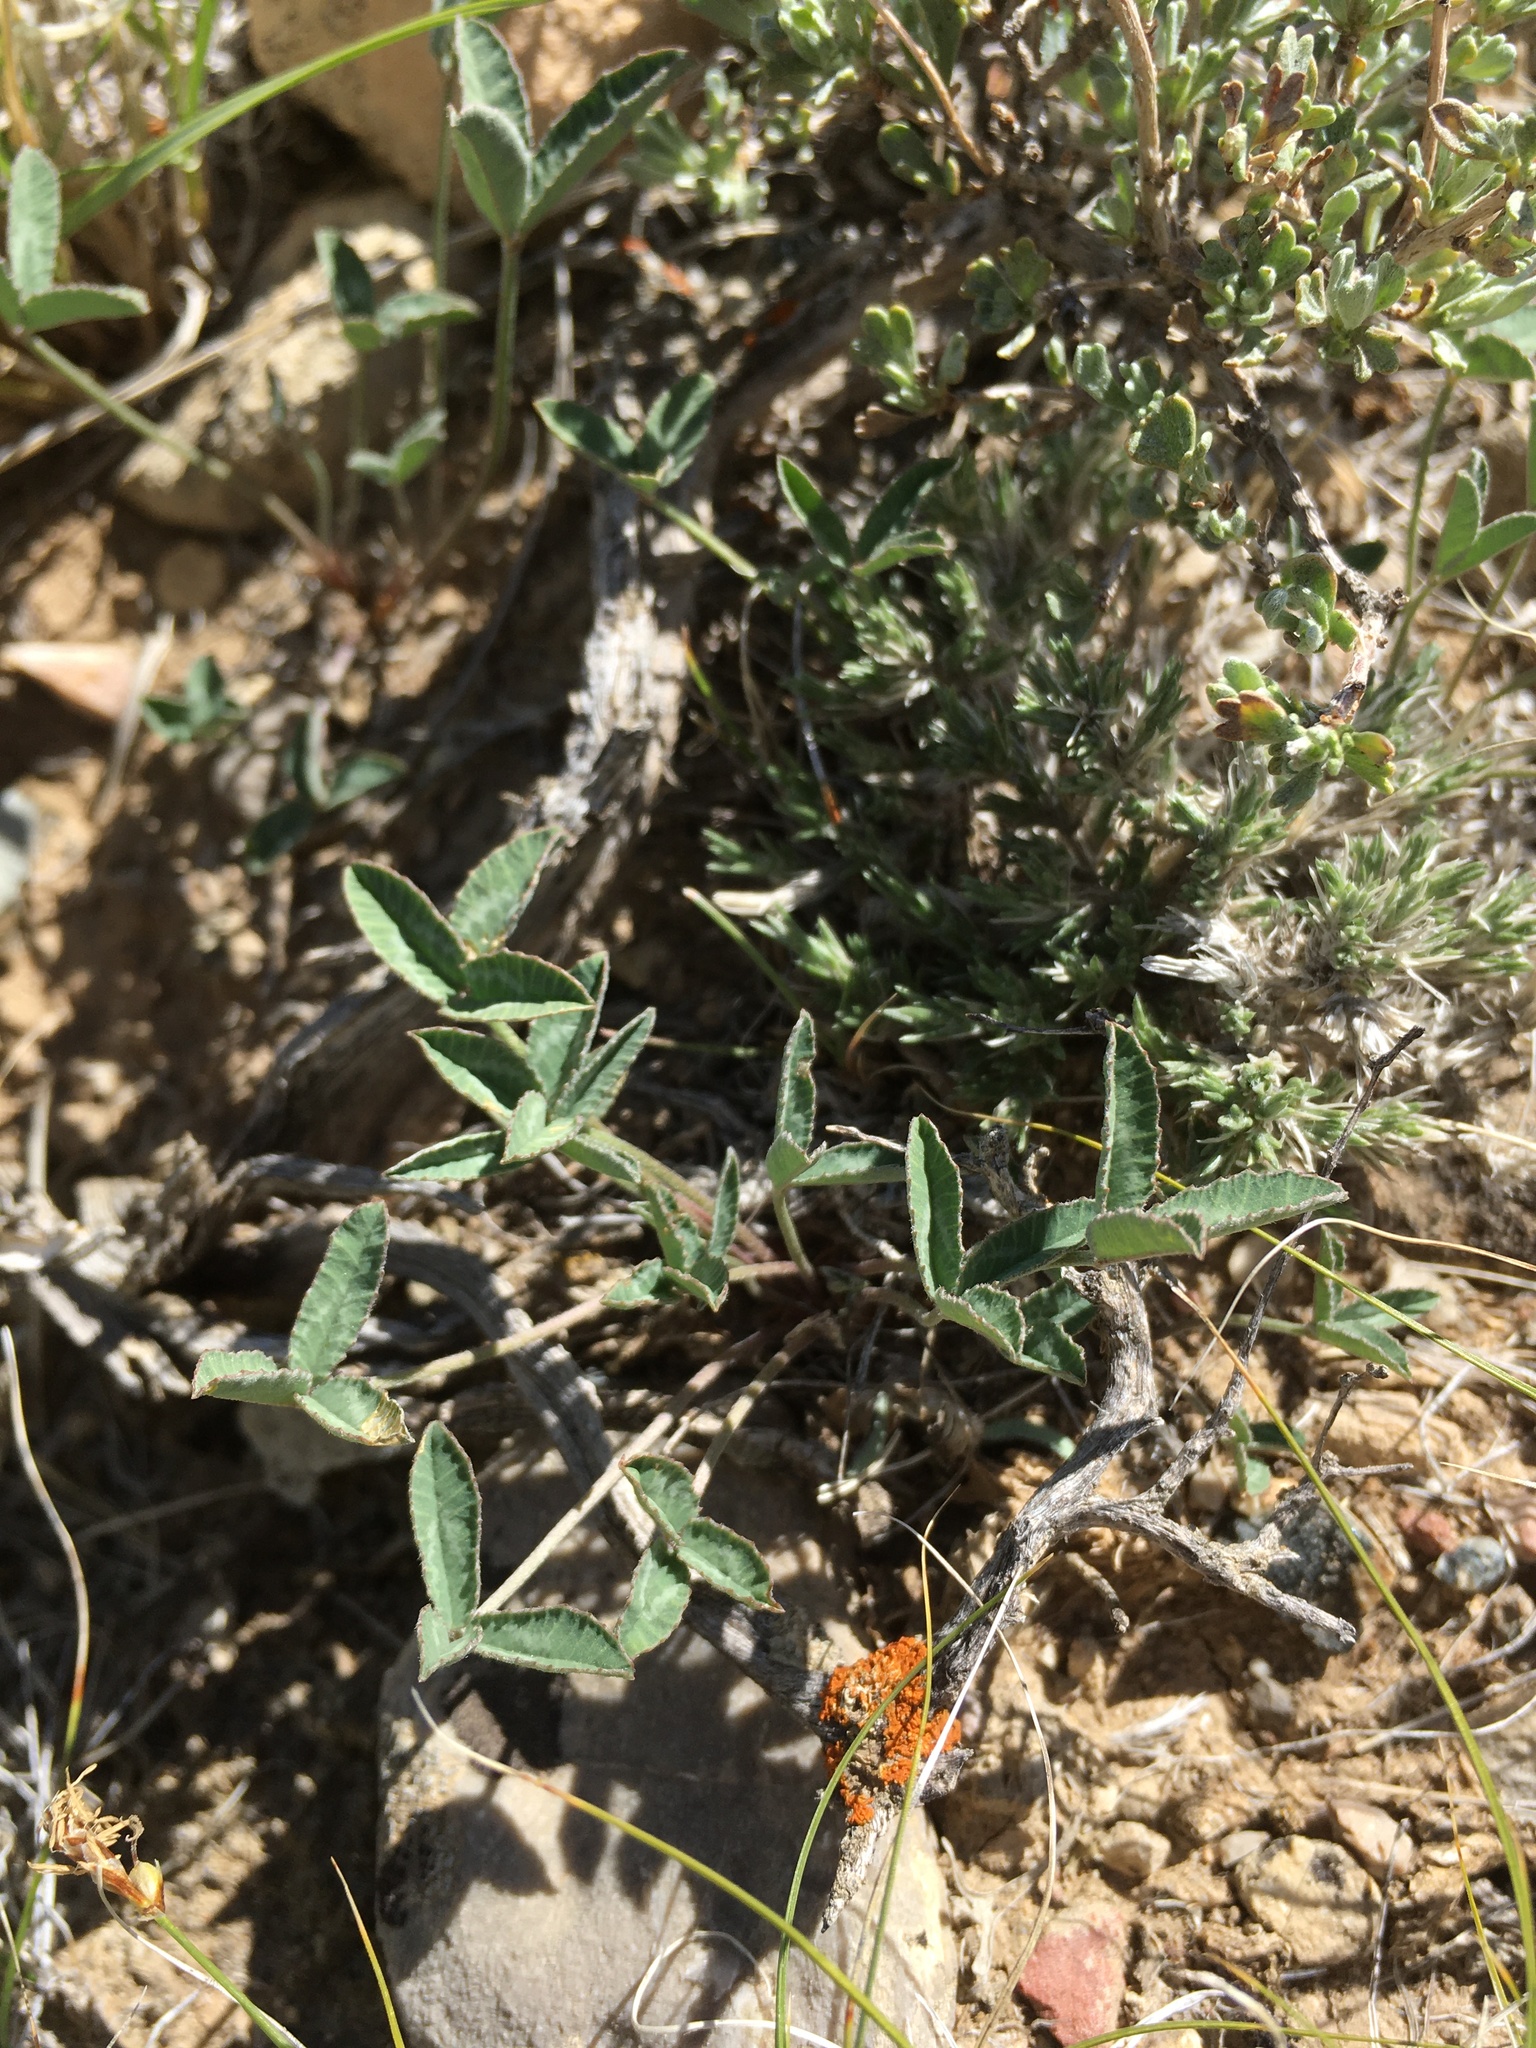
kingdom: Plantae
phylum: Tracheophyta
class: Magnoliopsida
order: Fabales
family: Fabaceae
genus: Trifolium
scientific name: Trifolium gymnocarpon
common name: Tufted clover
